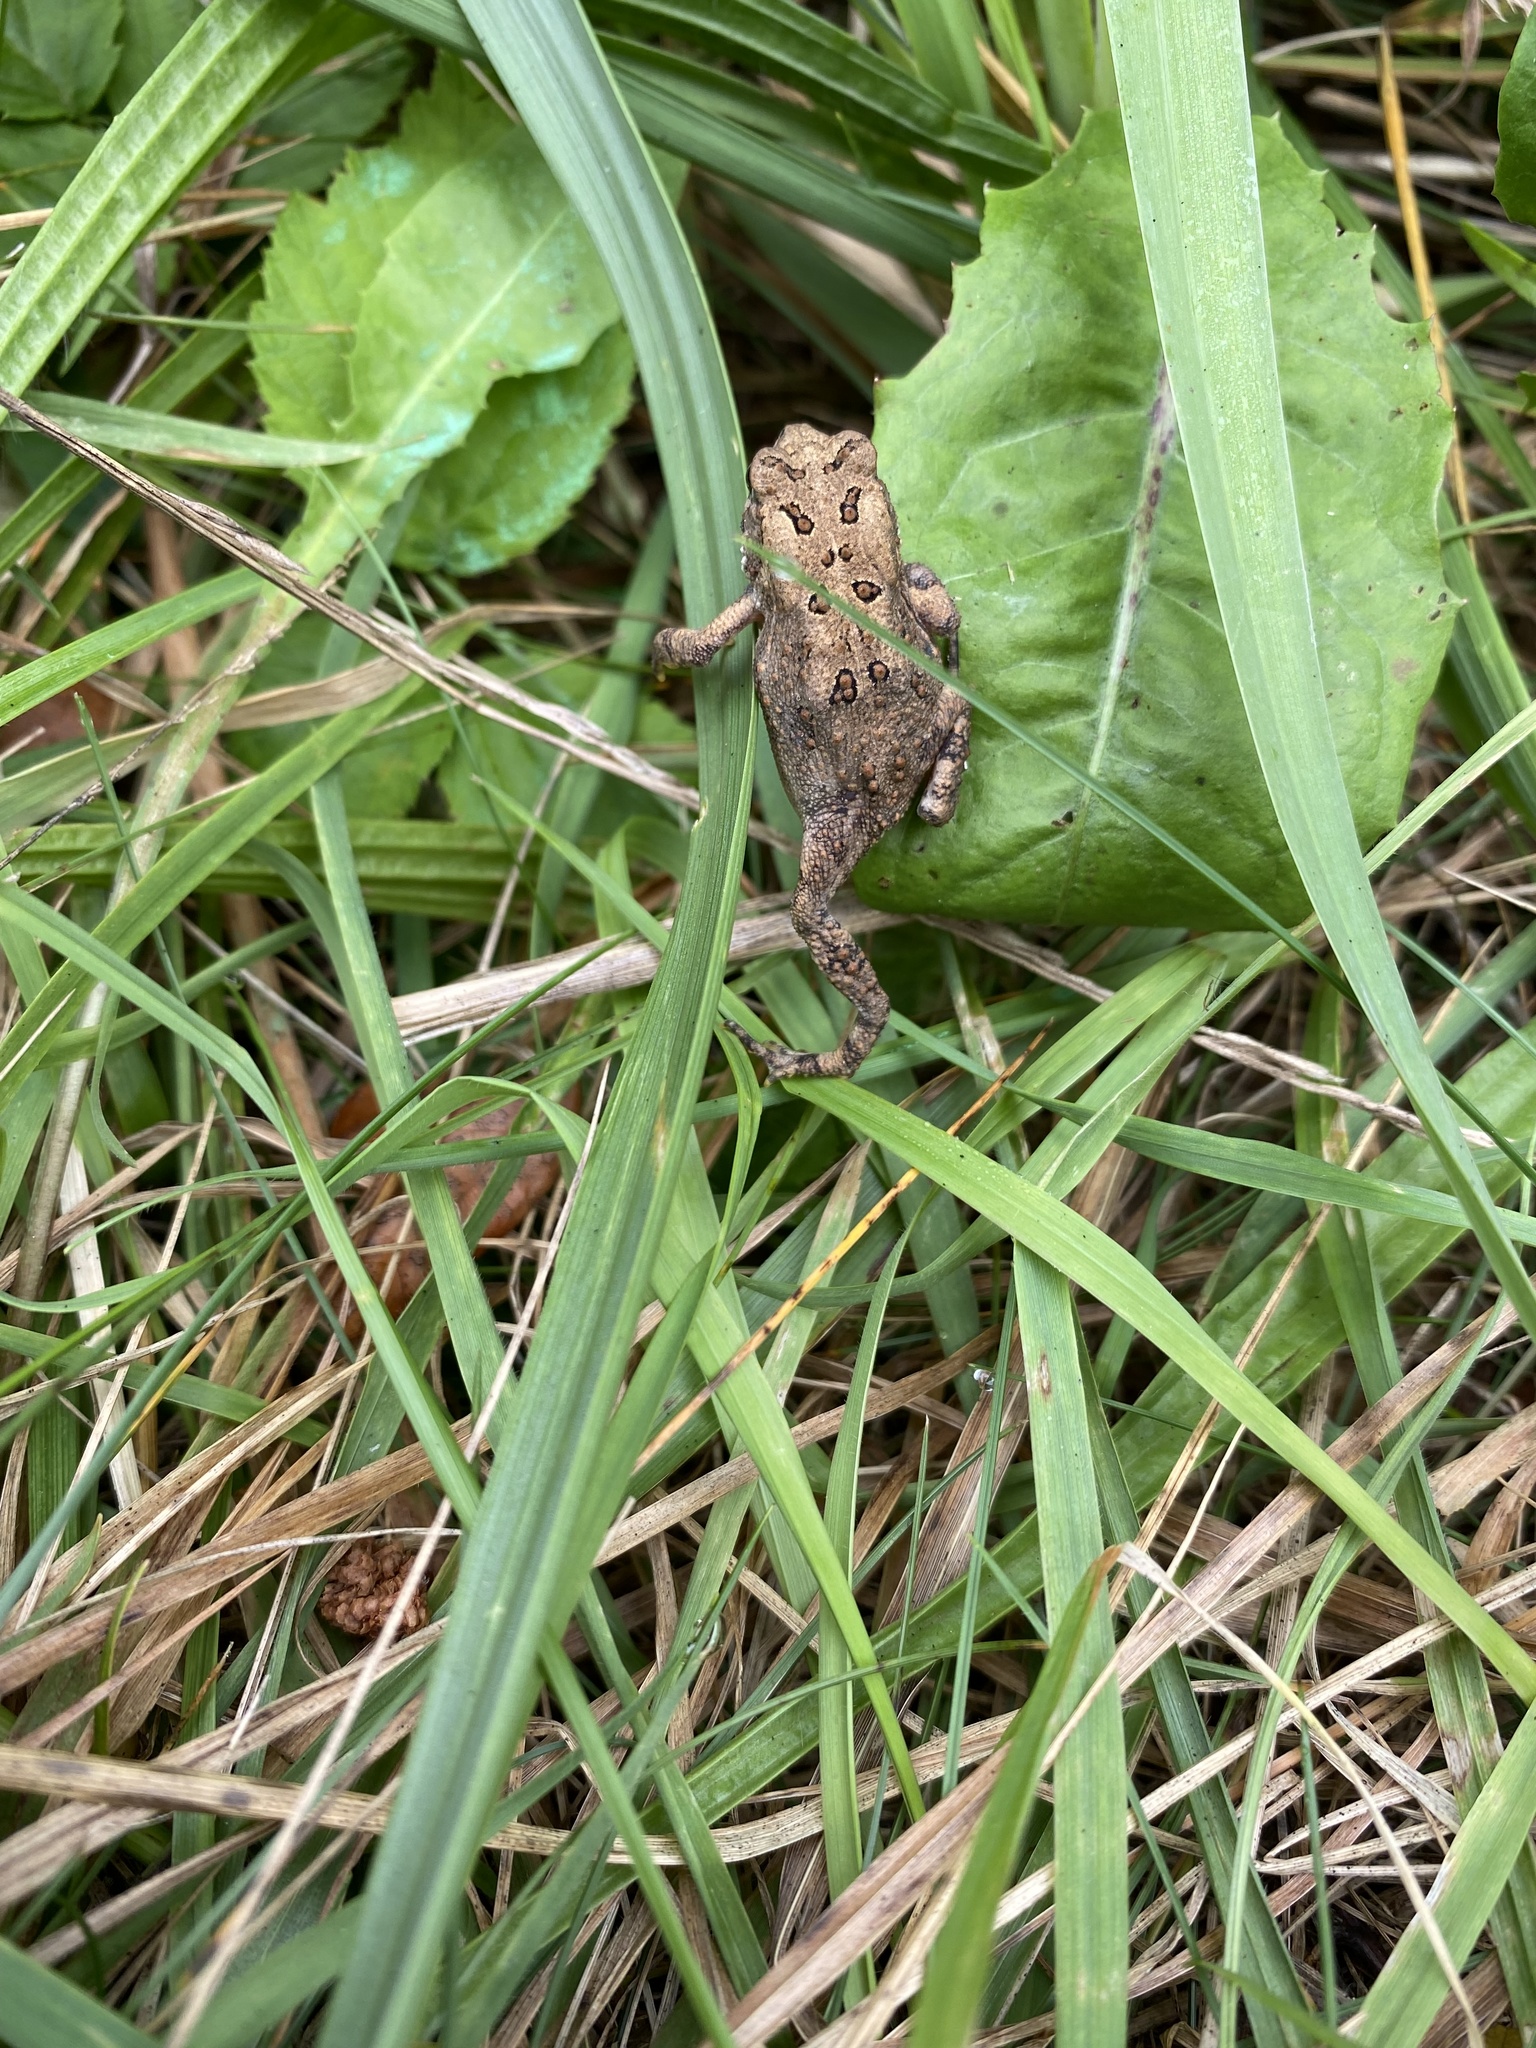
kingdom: Animalia
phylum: Chordata
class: Amphibia
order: Anura
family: Bufonidae
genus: Anaxyrus
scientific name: Anaxyrus
